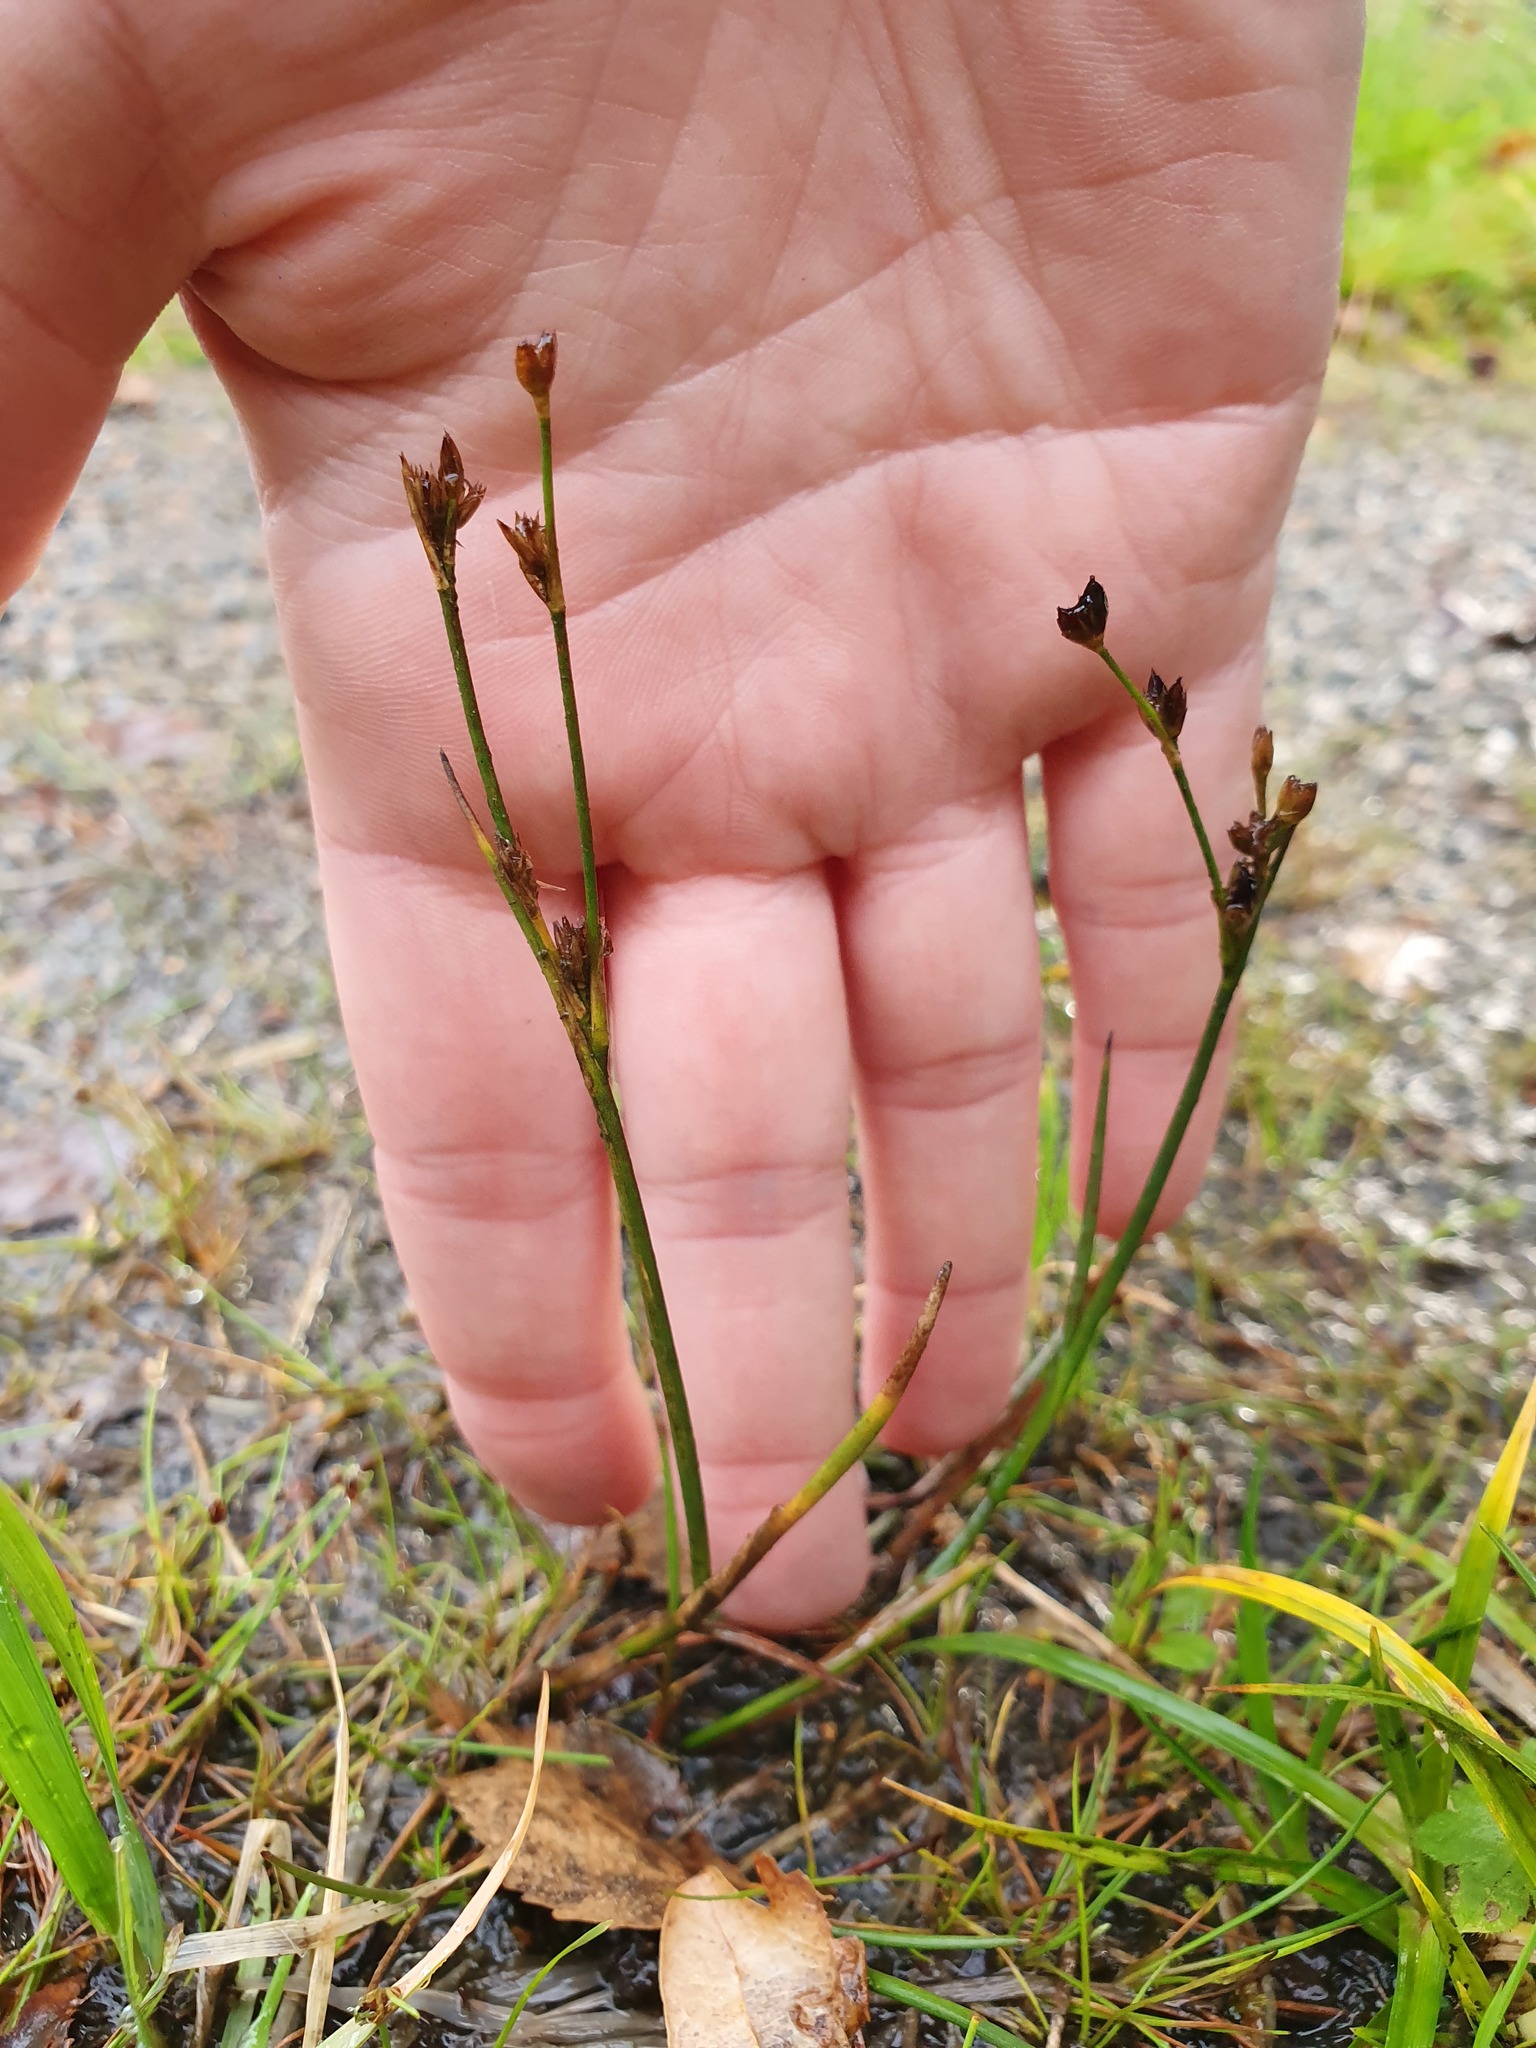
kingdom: Plantae
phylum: Tracheophyta
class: Liliopsida
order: Poales
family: Juncaceae
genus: Juncus
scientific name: Juncus articulatus
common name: Jointed rush
